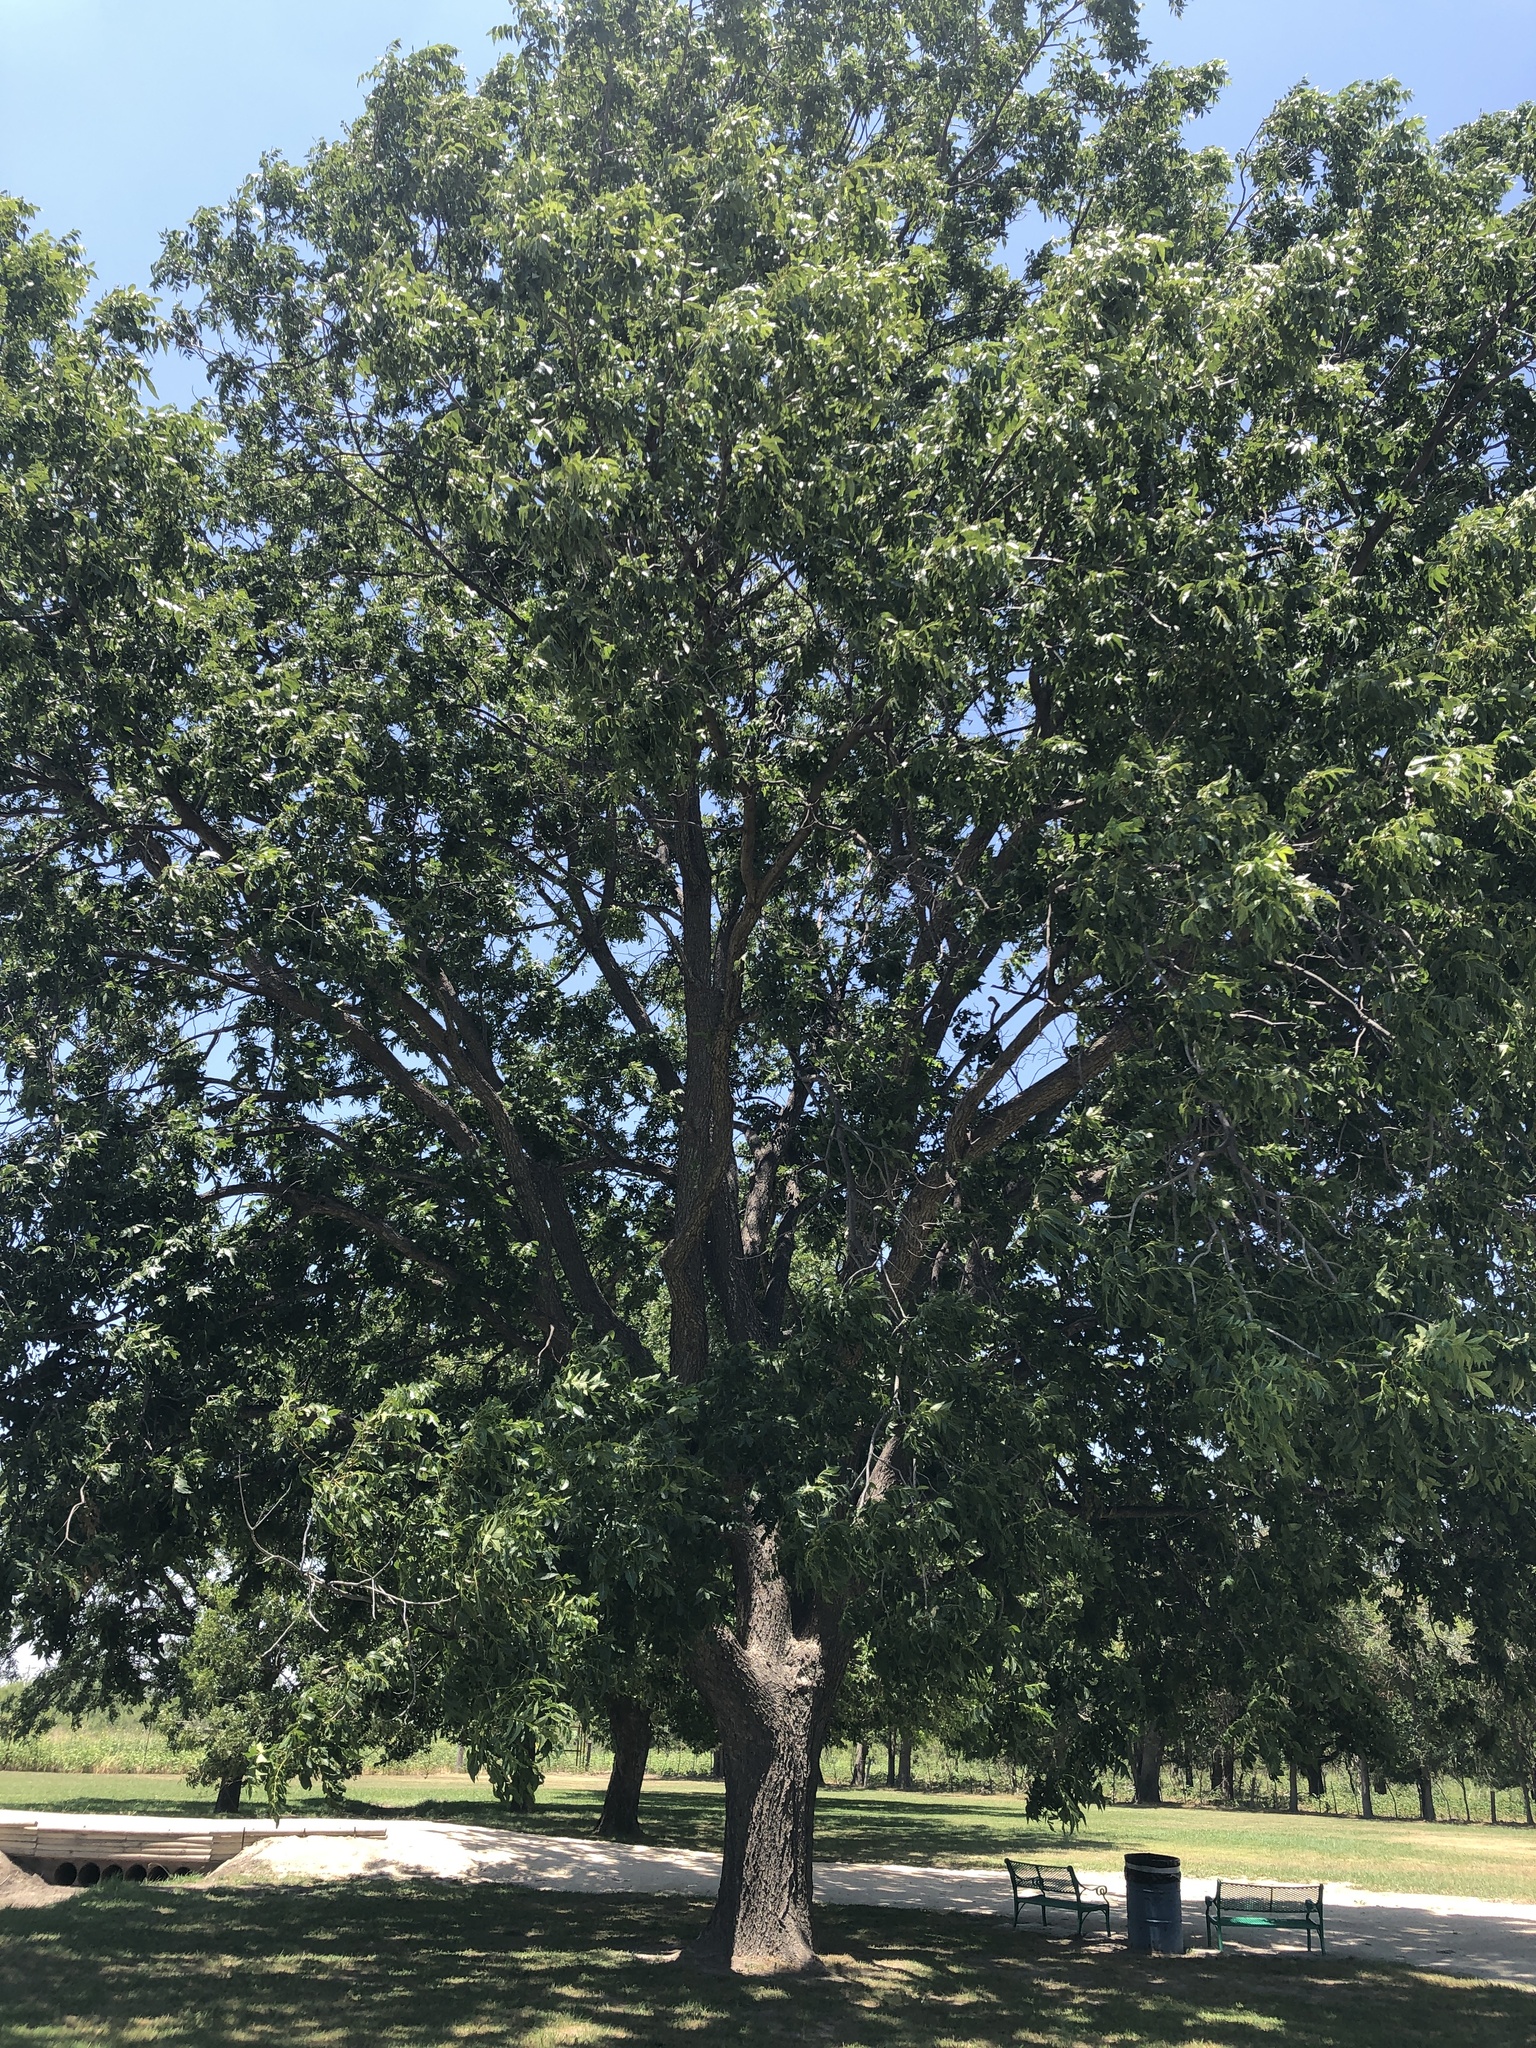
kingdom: Plantae
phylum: Tracheophyta
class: Magnoliopsida
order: Fagales
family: Juglandaceae
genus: Carya
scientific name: Carya illinoinensis
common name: Pecan
